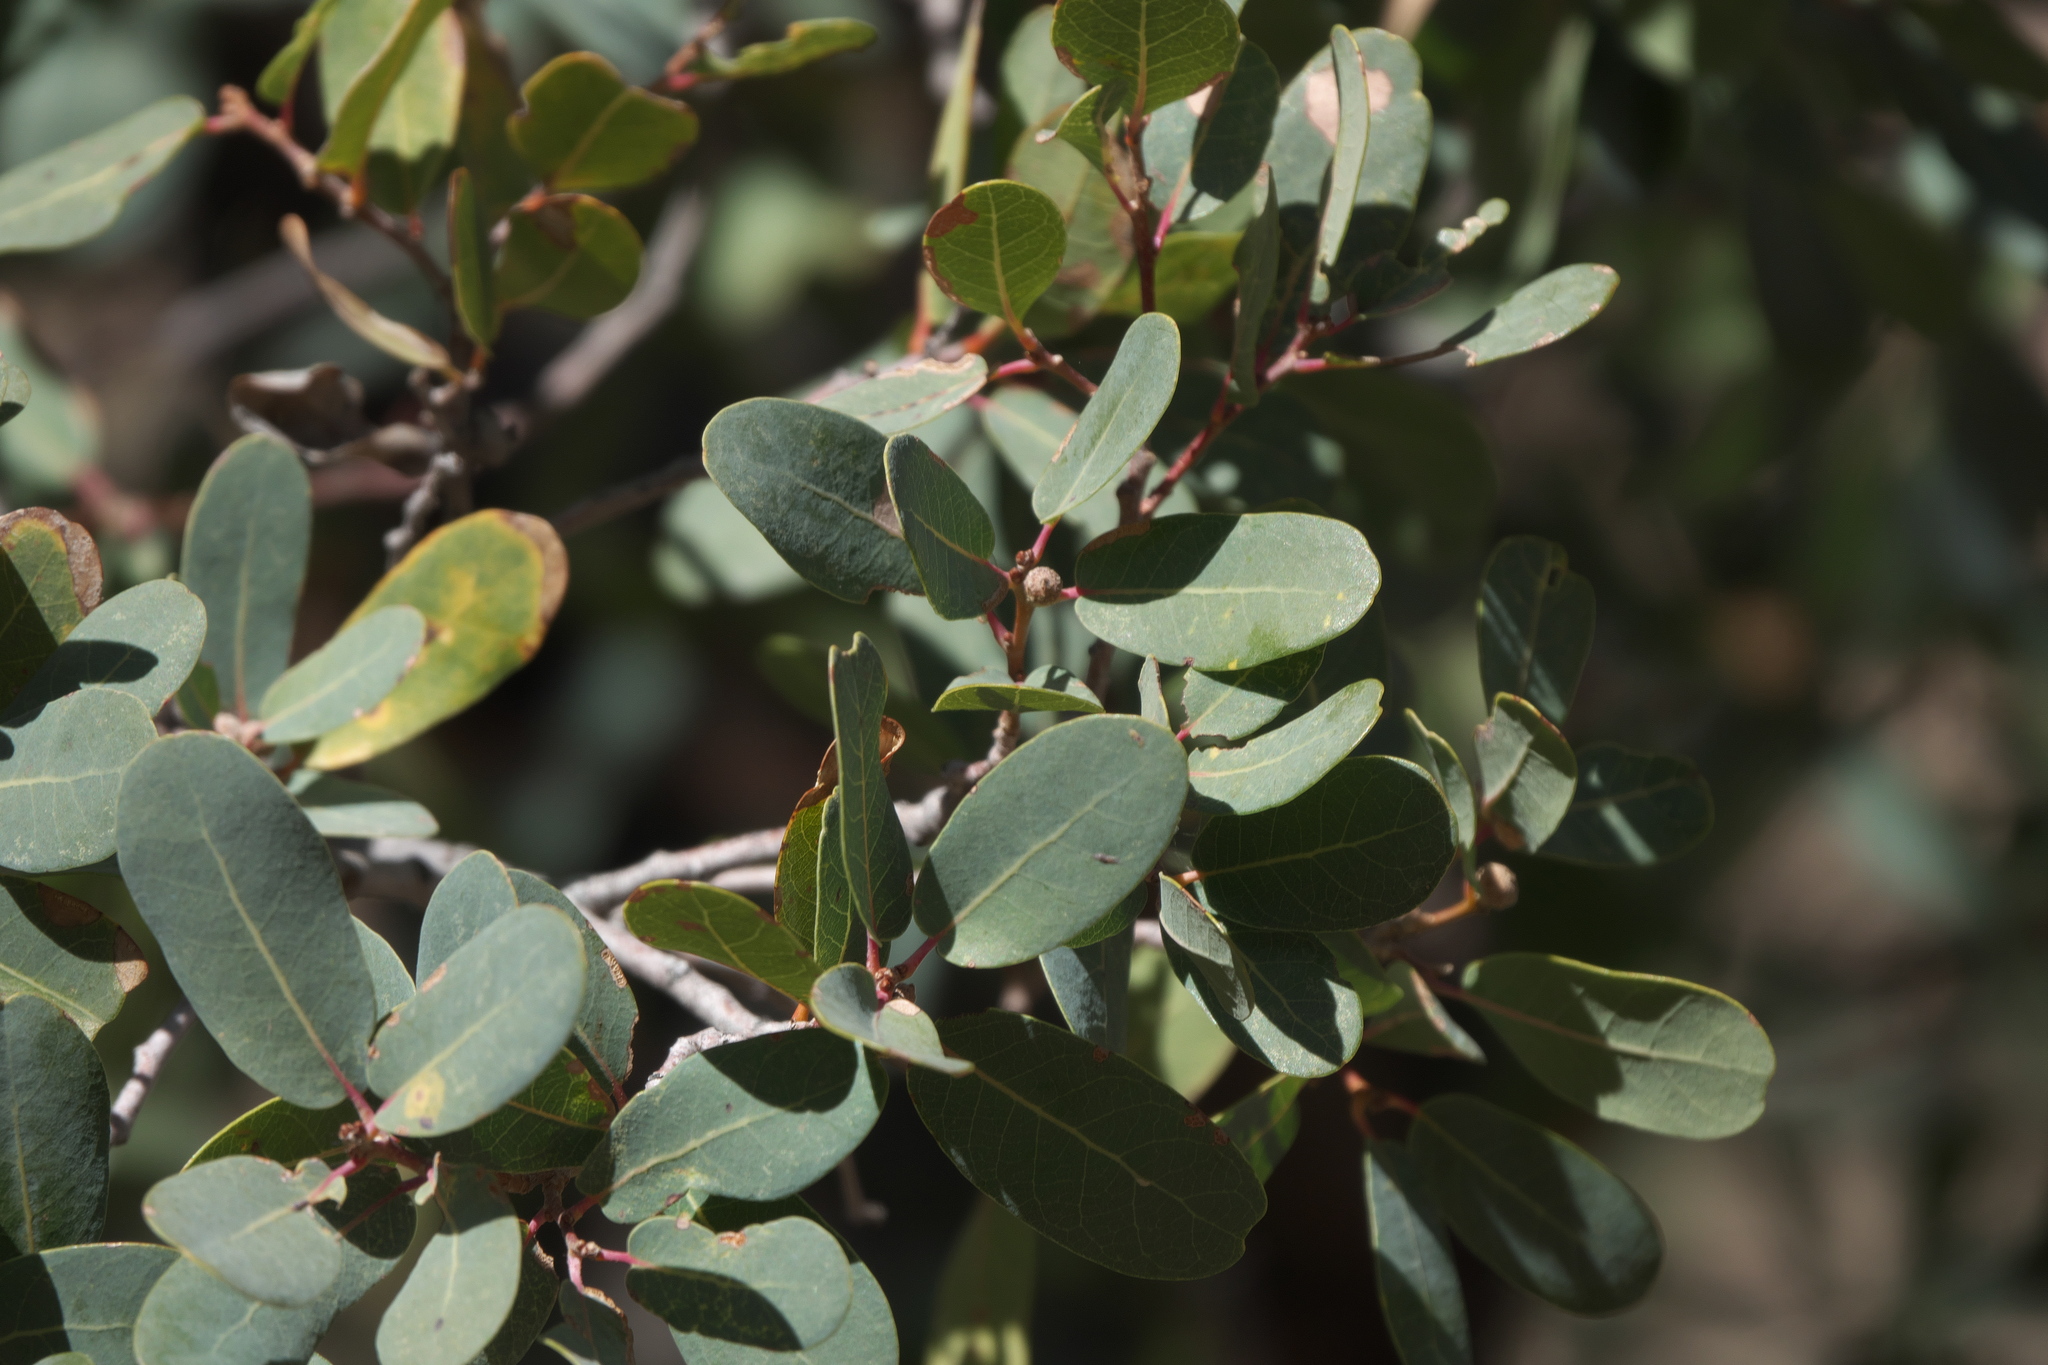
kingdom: Plantae
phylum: Tracheophyta
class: Magnoliopsida
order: Fagales
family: Fagaceae
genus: Quercus
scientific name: Quercus oblongifolia
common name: Mexican blue oak
